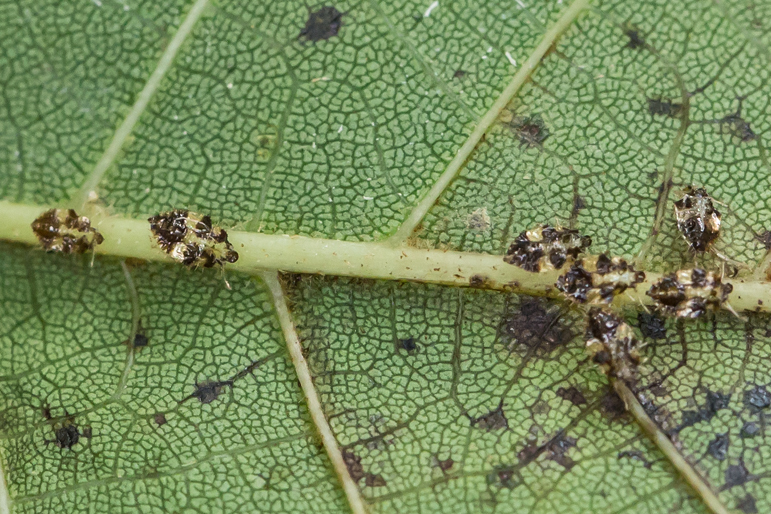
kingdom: Animalia
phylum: Arthropoda
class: Insecta
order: Hemiptera
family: Tingidae
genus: Corythucha
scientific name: Corythucha juglandis
